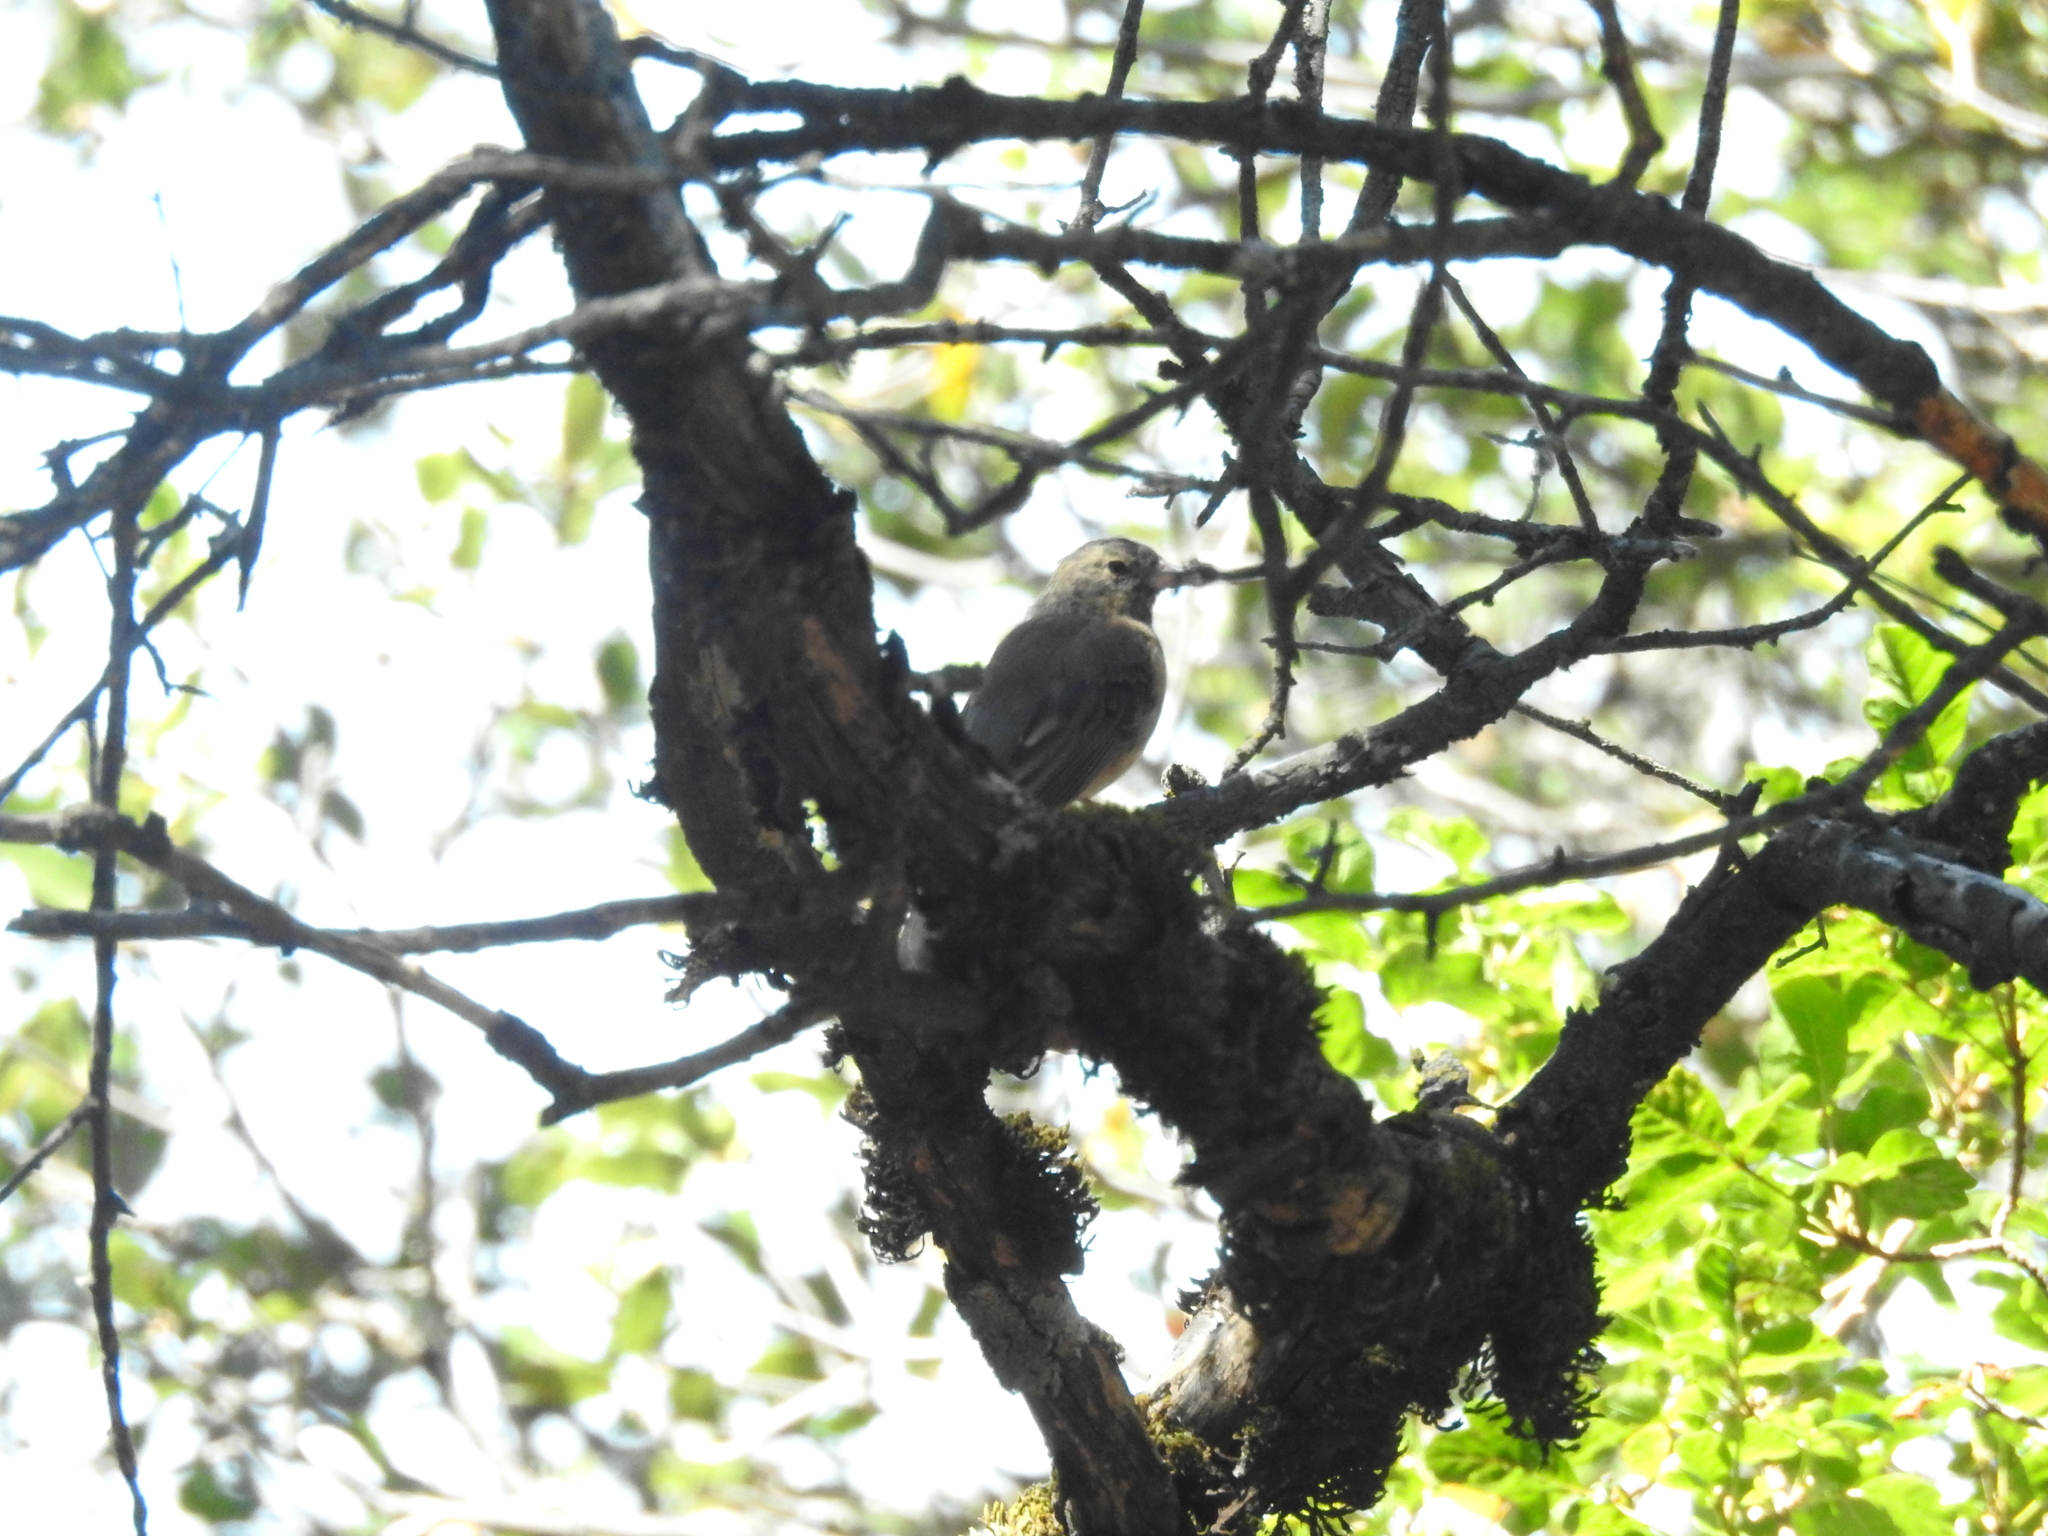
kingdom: Animalia
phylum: Chordata
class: Aves
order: Passeriformes
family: Passerellidae
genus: Junco
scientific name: Junco hyemalis
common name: Dark-eyed junco
